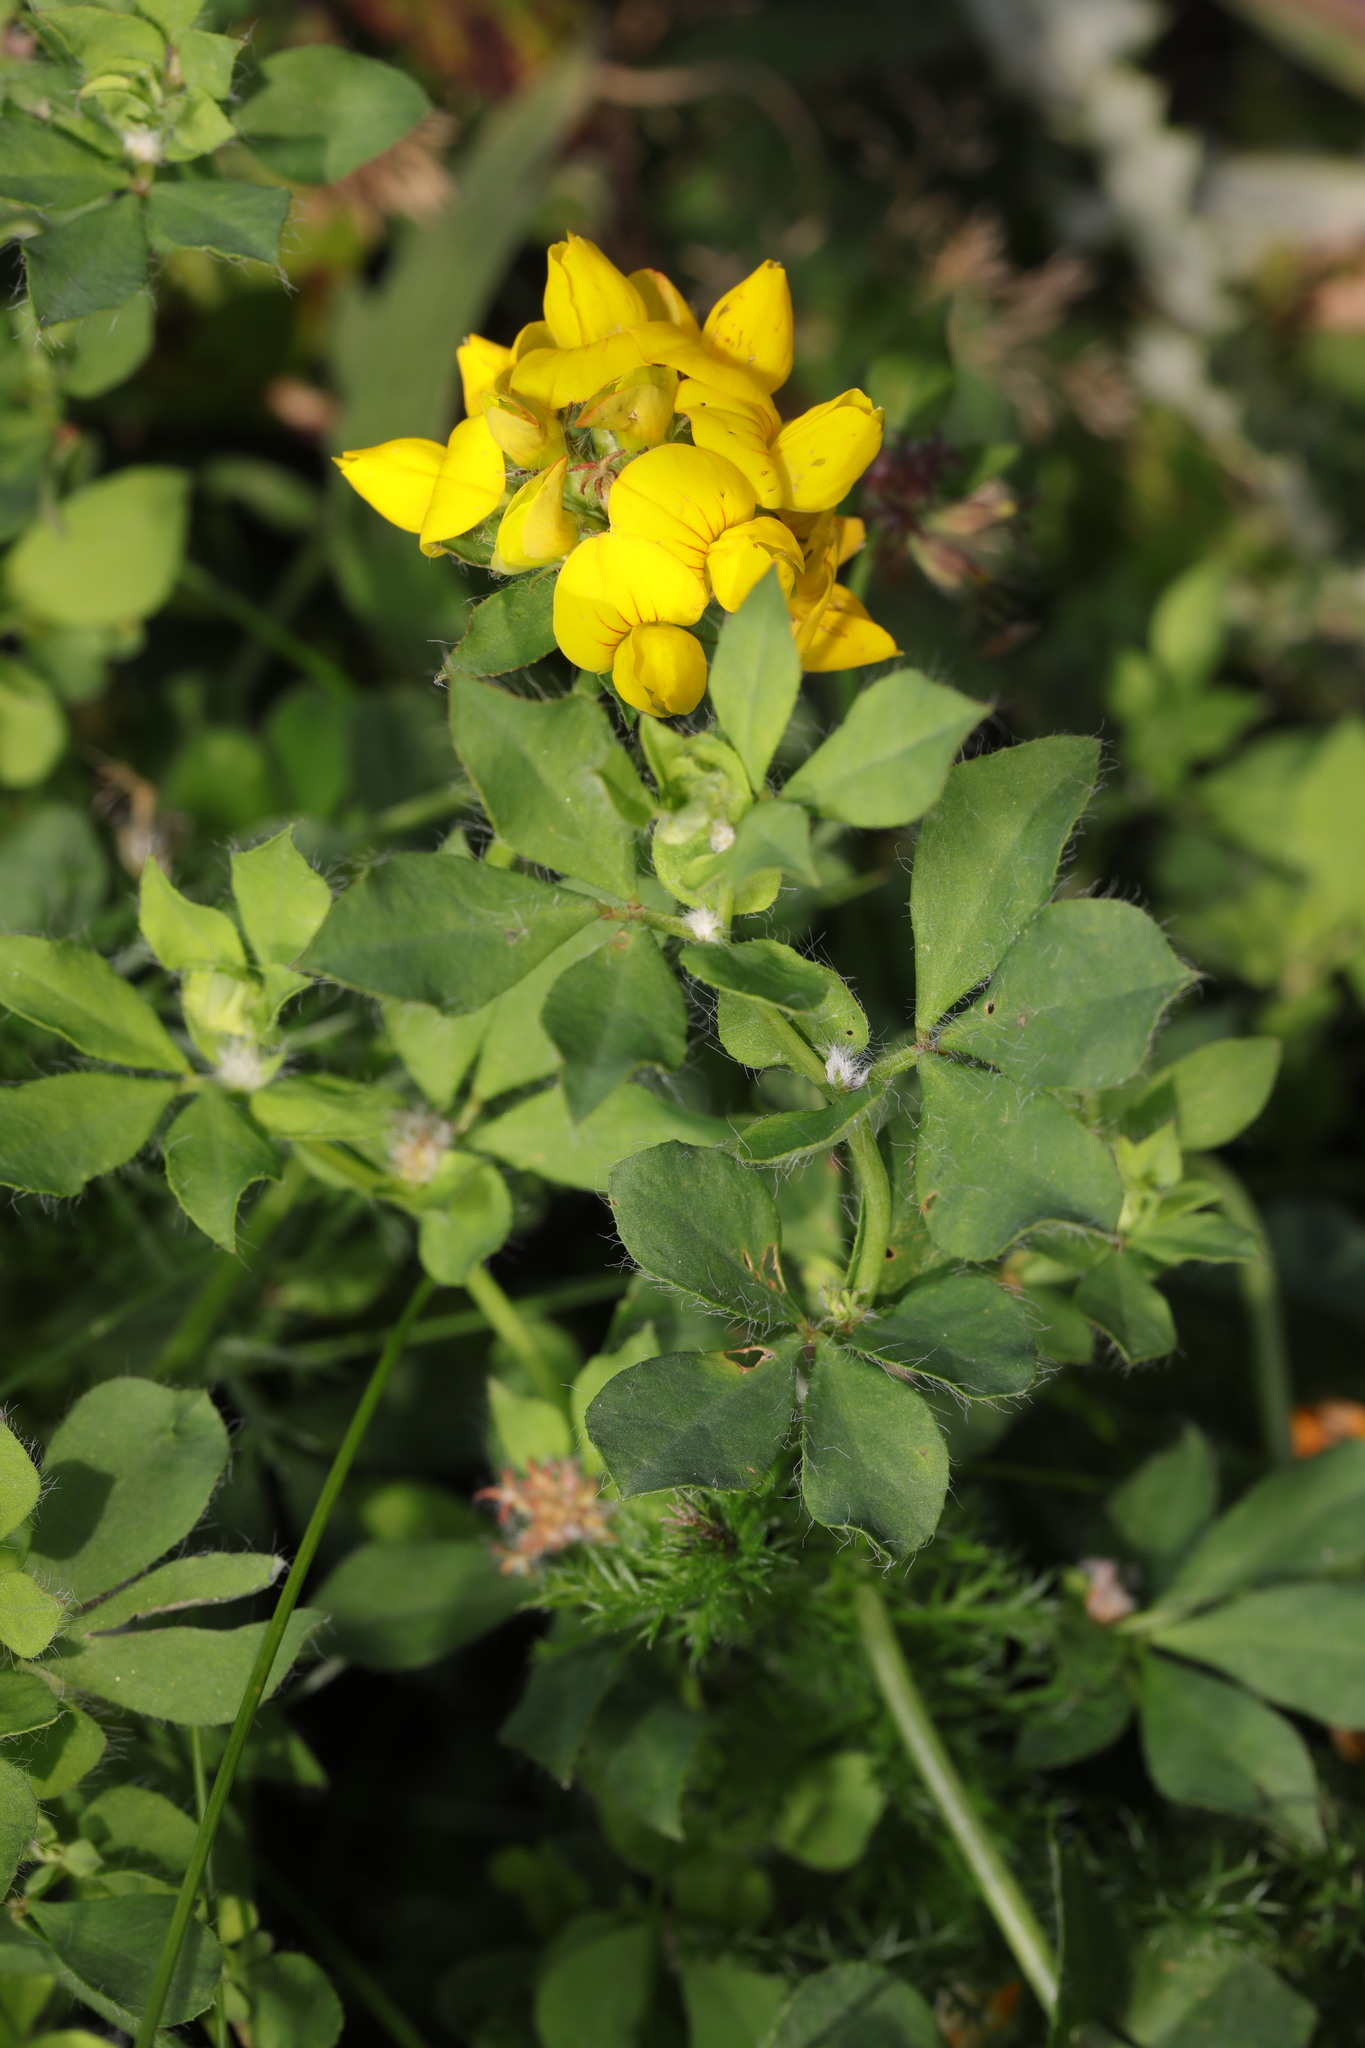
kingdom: Plantae
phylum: Tracheophyta
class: Magnoliopsida
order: Fabales
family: Fabaceae
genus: Lotus
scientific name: Lotus pedunculatus
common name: Greater birdsfoot-trefoil
